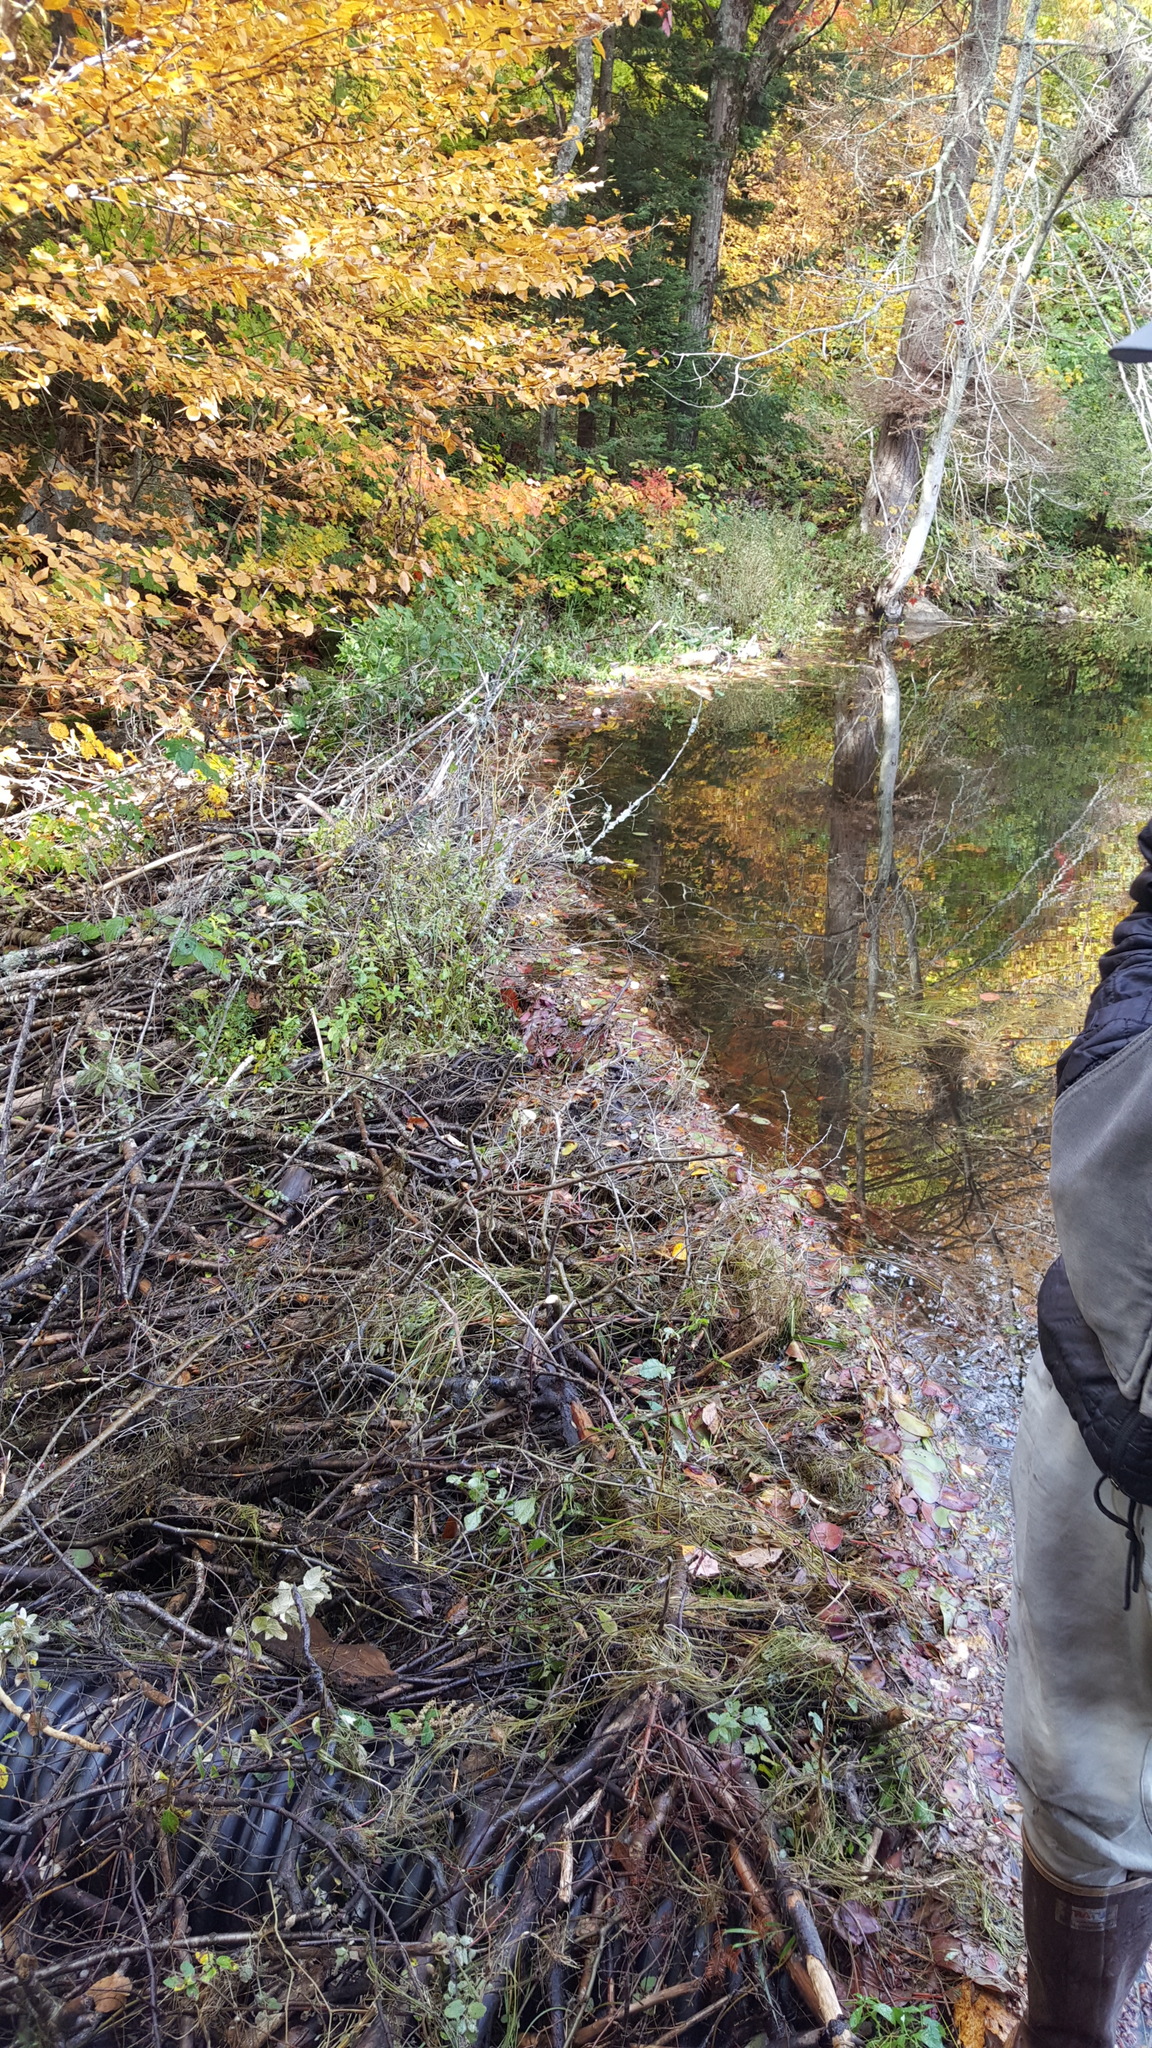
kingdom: Animalia
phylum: Chordata
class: Mammalia
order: Rodentia
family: Castoridae
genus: Castor
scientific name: Castor canadensis
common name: American beaver
